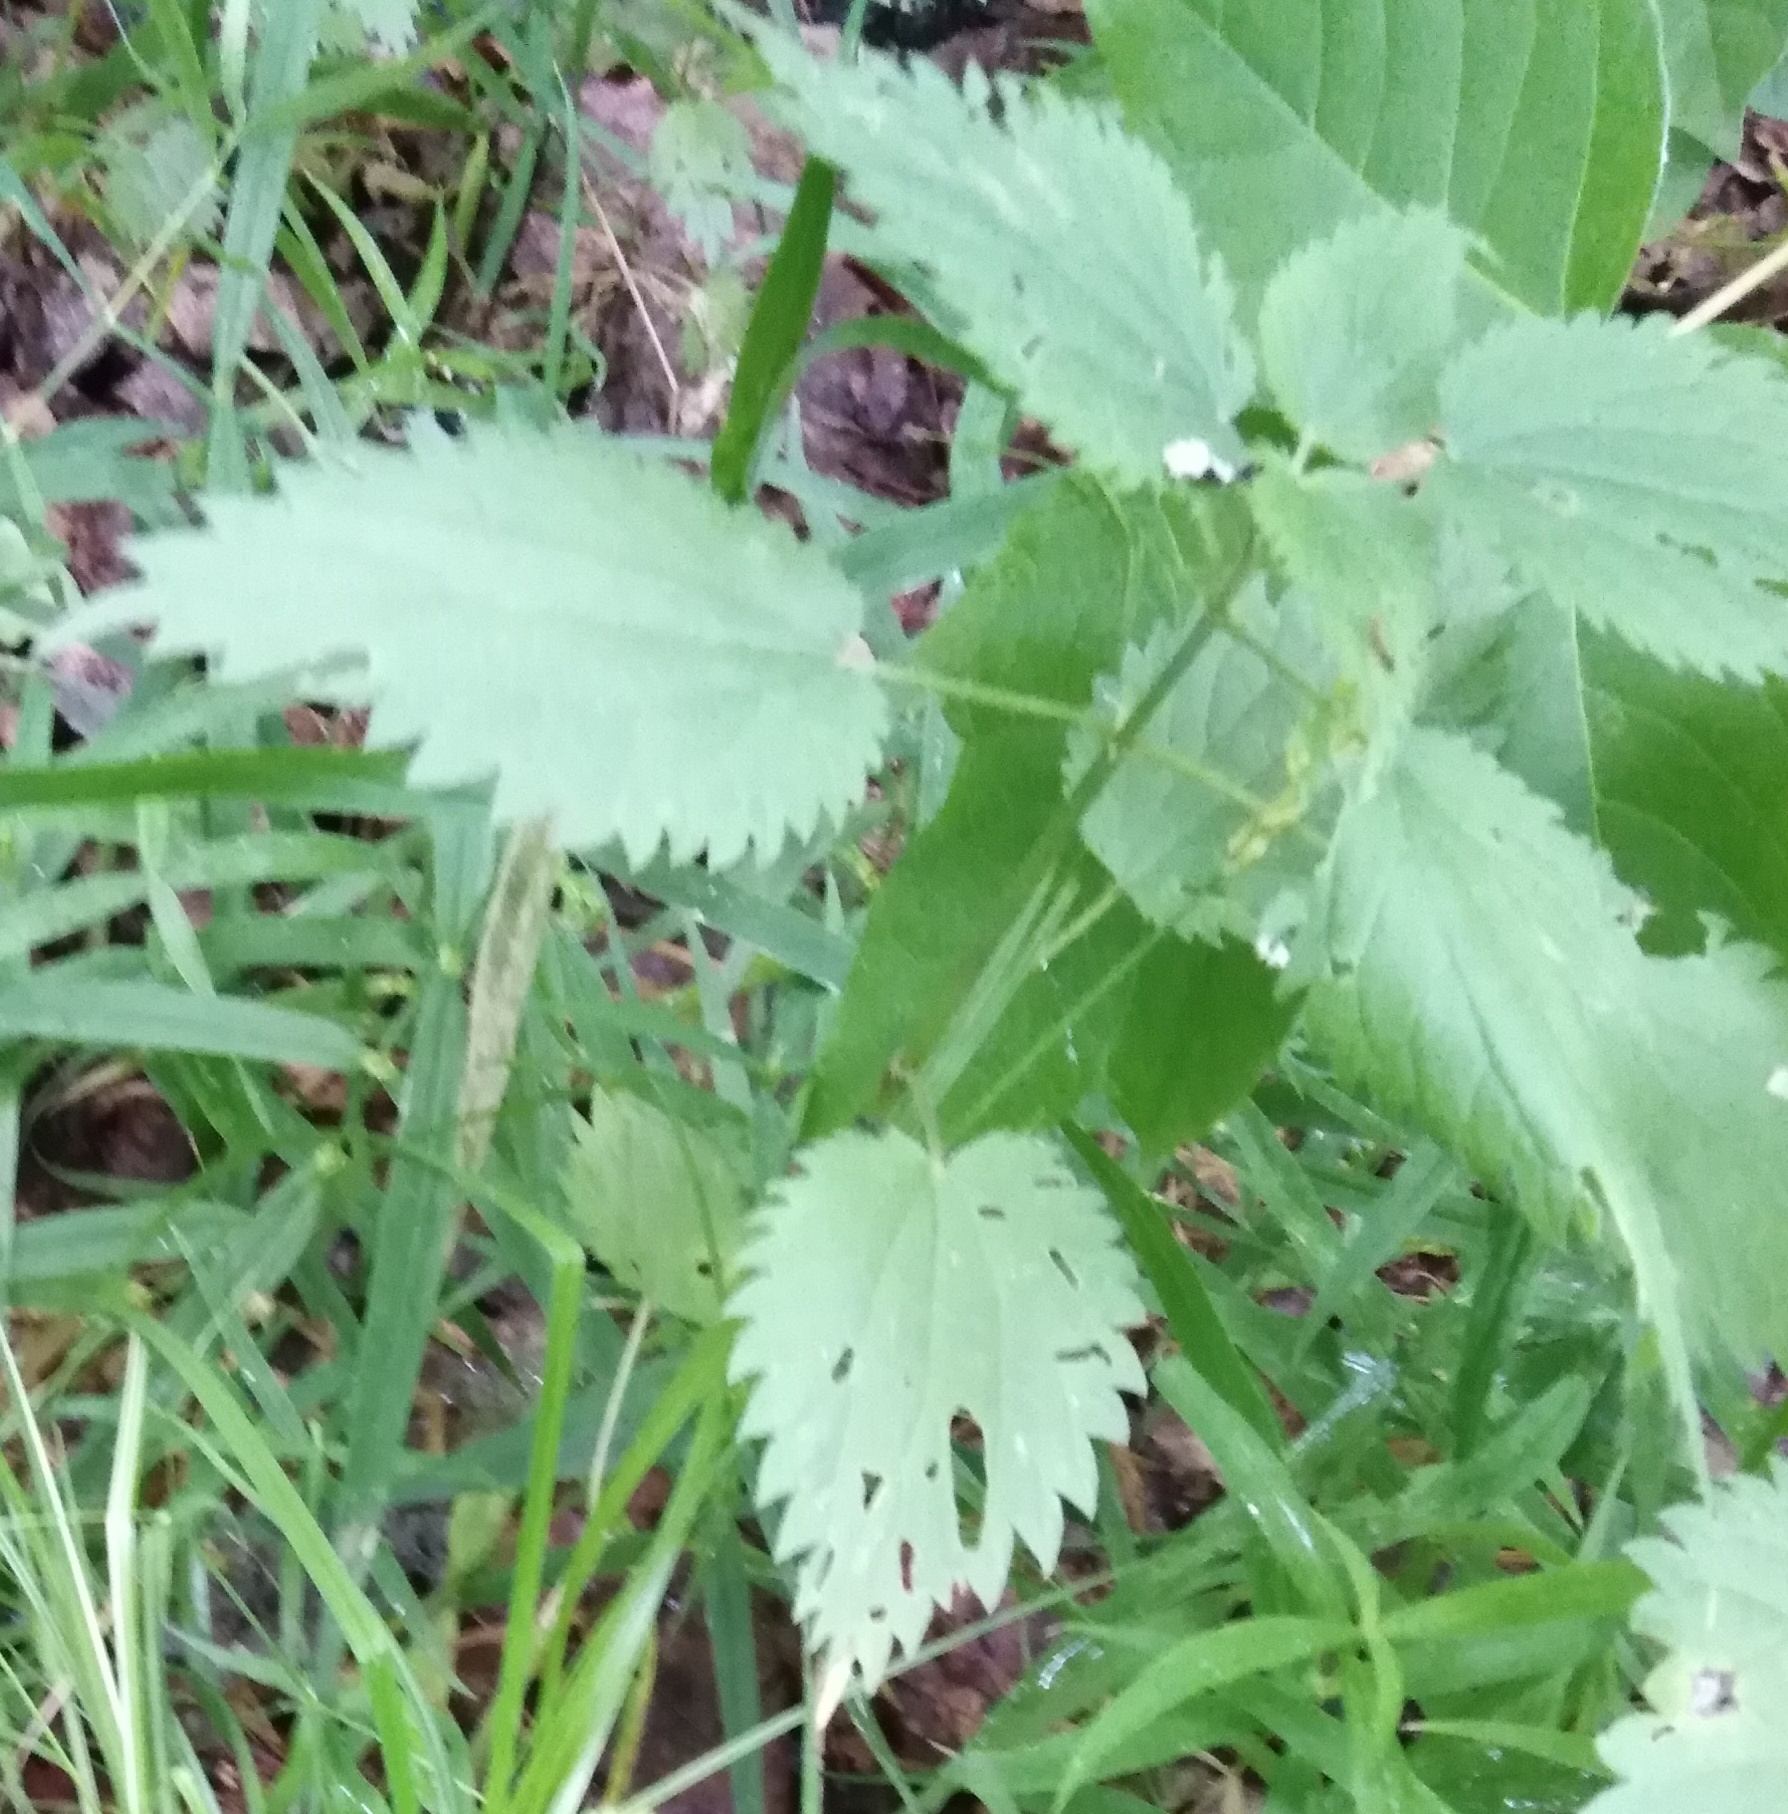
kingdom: Plantae
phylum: Tracheophyta
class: Magnoliopsida
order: Rosales
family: Urticaceae
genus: Urtica
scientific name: Urtica dioica
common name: Common nettle
